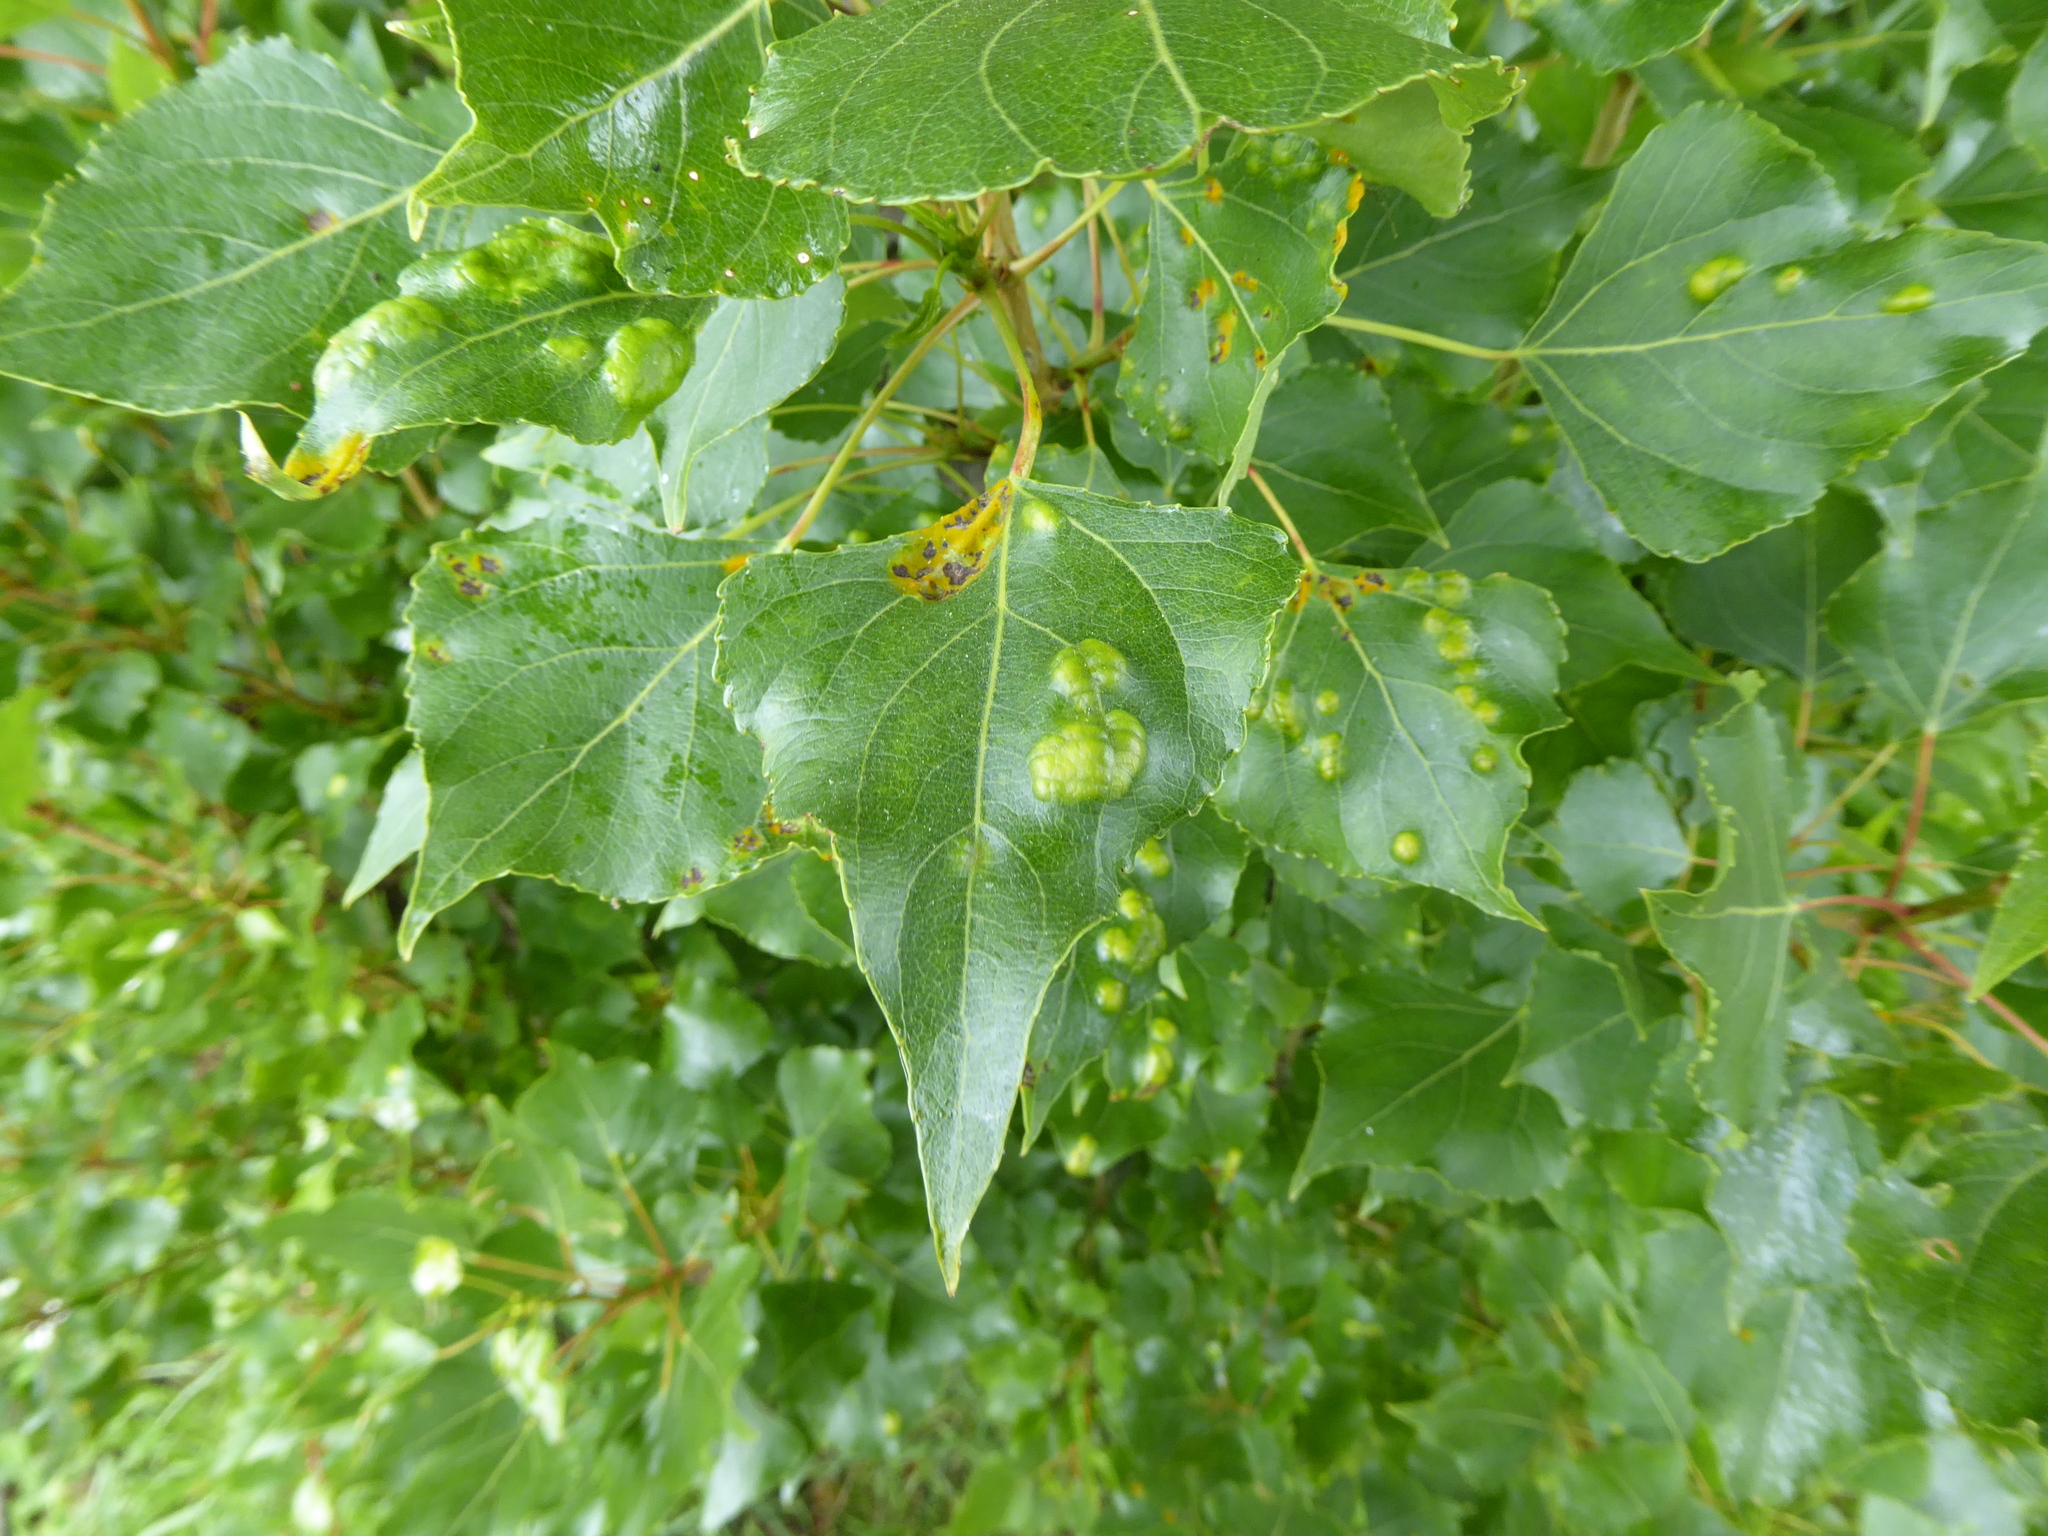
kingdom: Fungi
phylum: Ascomycota
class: Taphrinomycetes
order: Taphrinales
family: Taphrinaceae
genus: Taphrina
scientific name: Taphrina populina
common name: Poplar leaf curl
